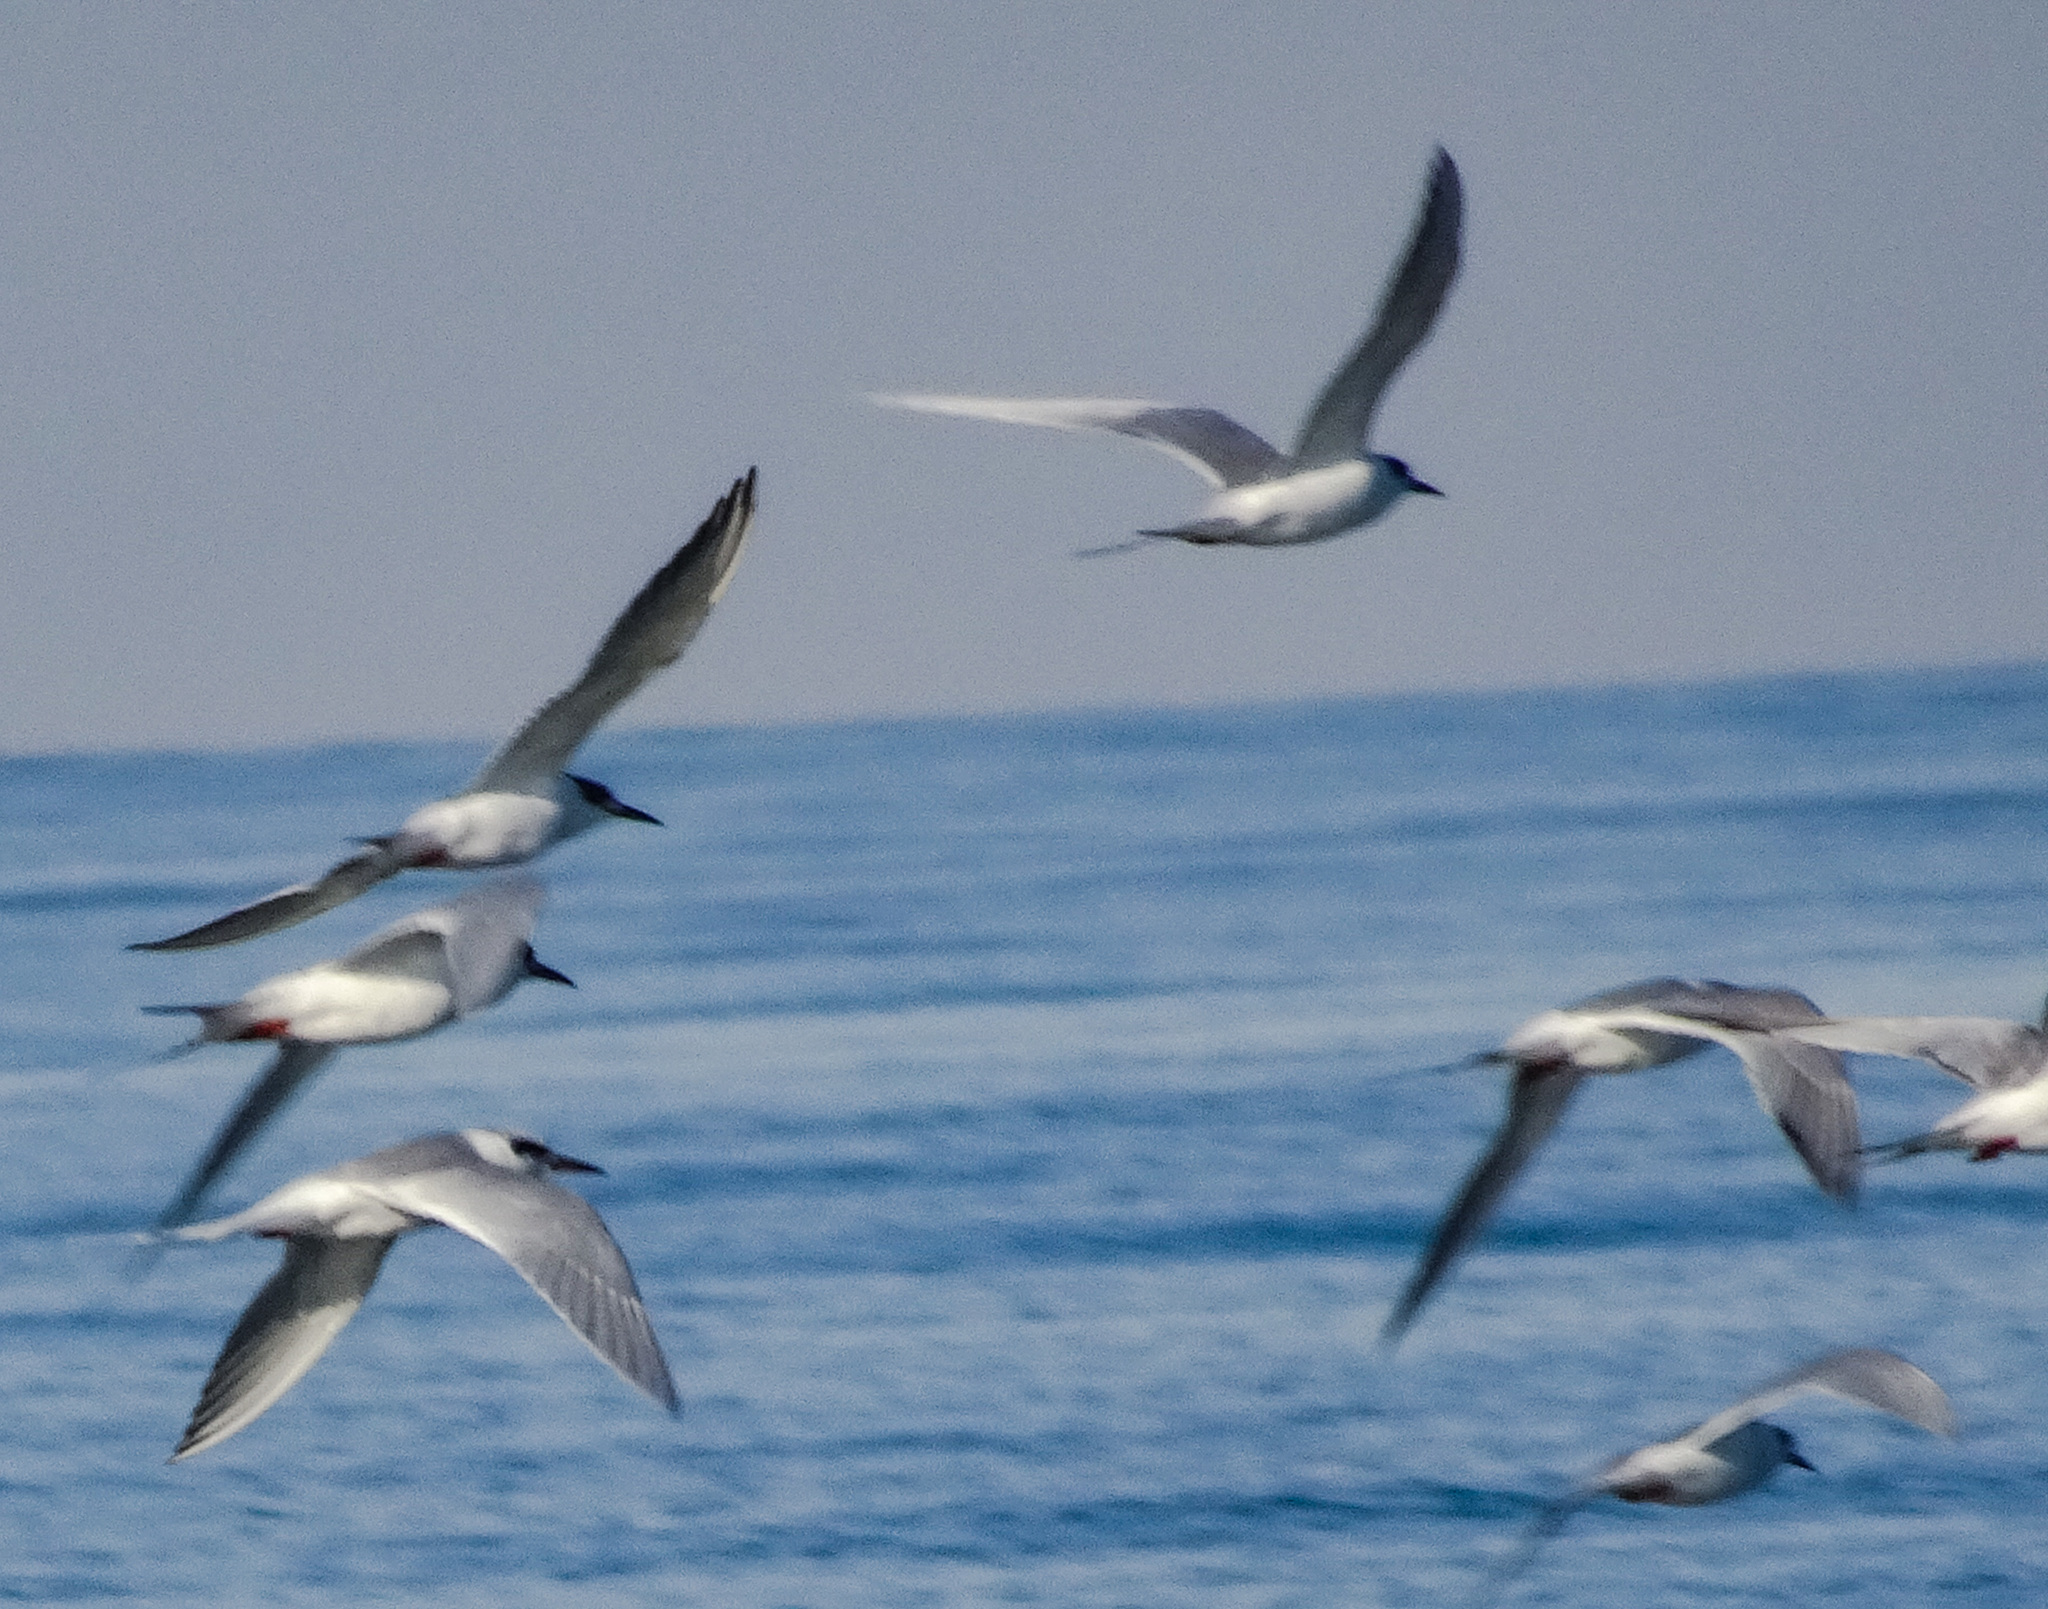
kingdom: Animalia
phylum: Chordata
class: Aves
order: Charadriiformes
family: Laridae
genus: Sterna
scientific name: Sterna forsteri
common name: Forster's tern
